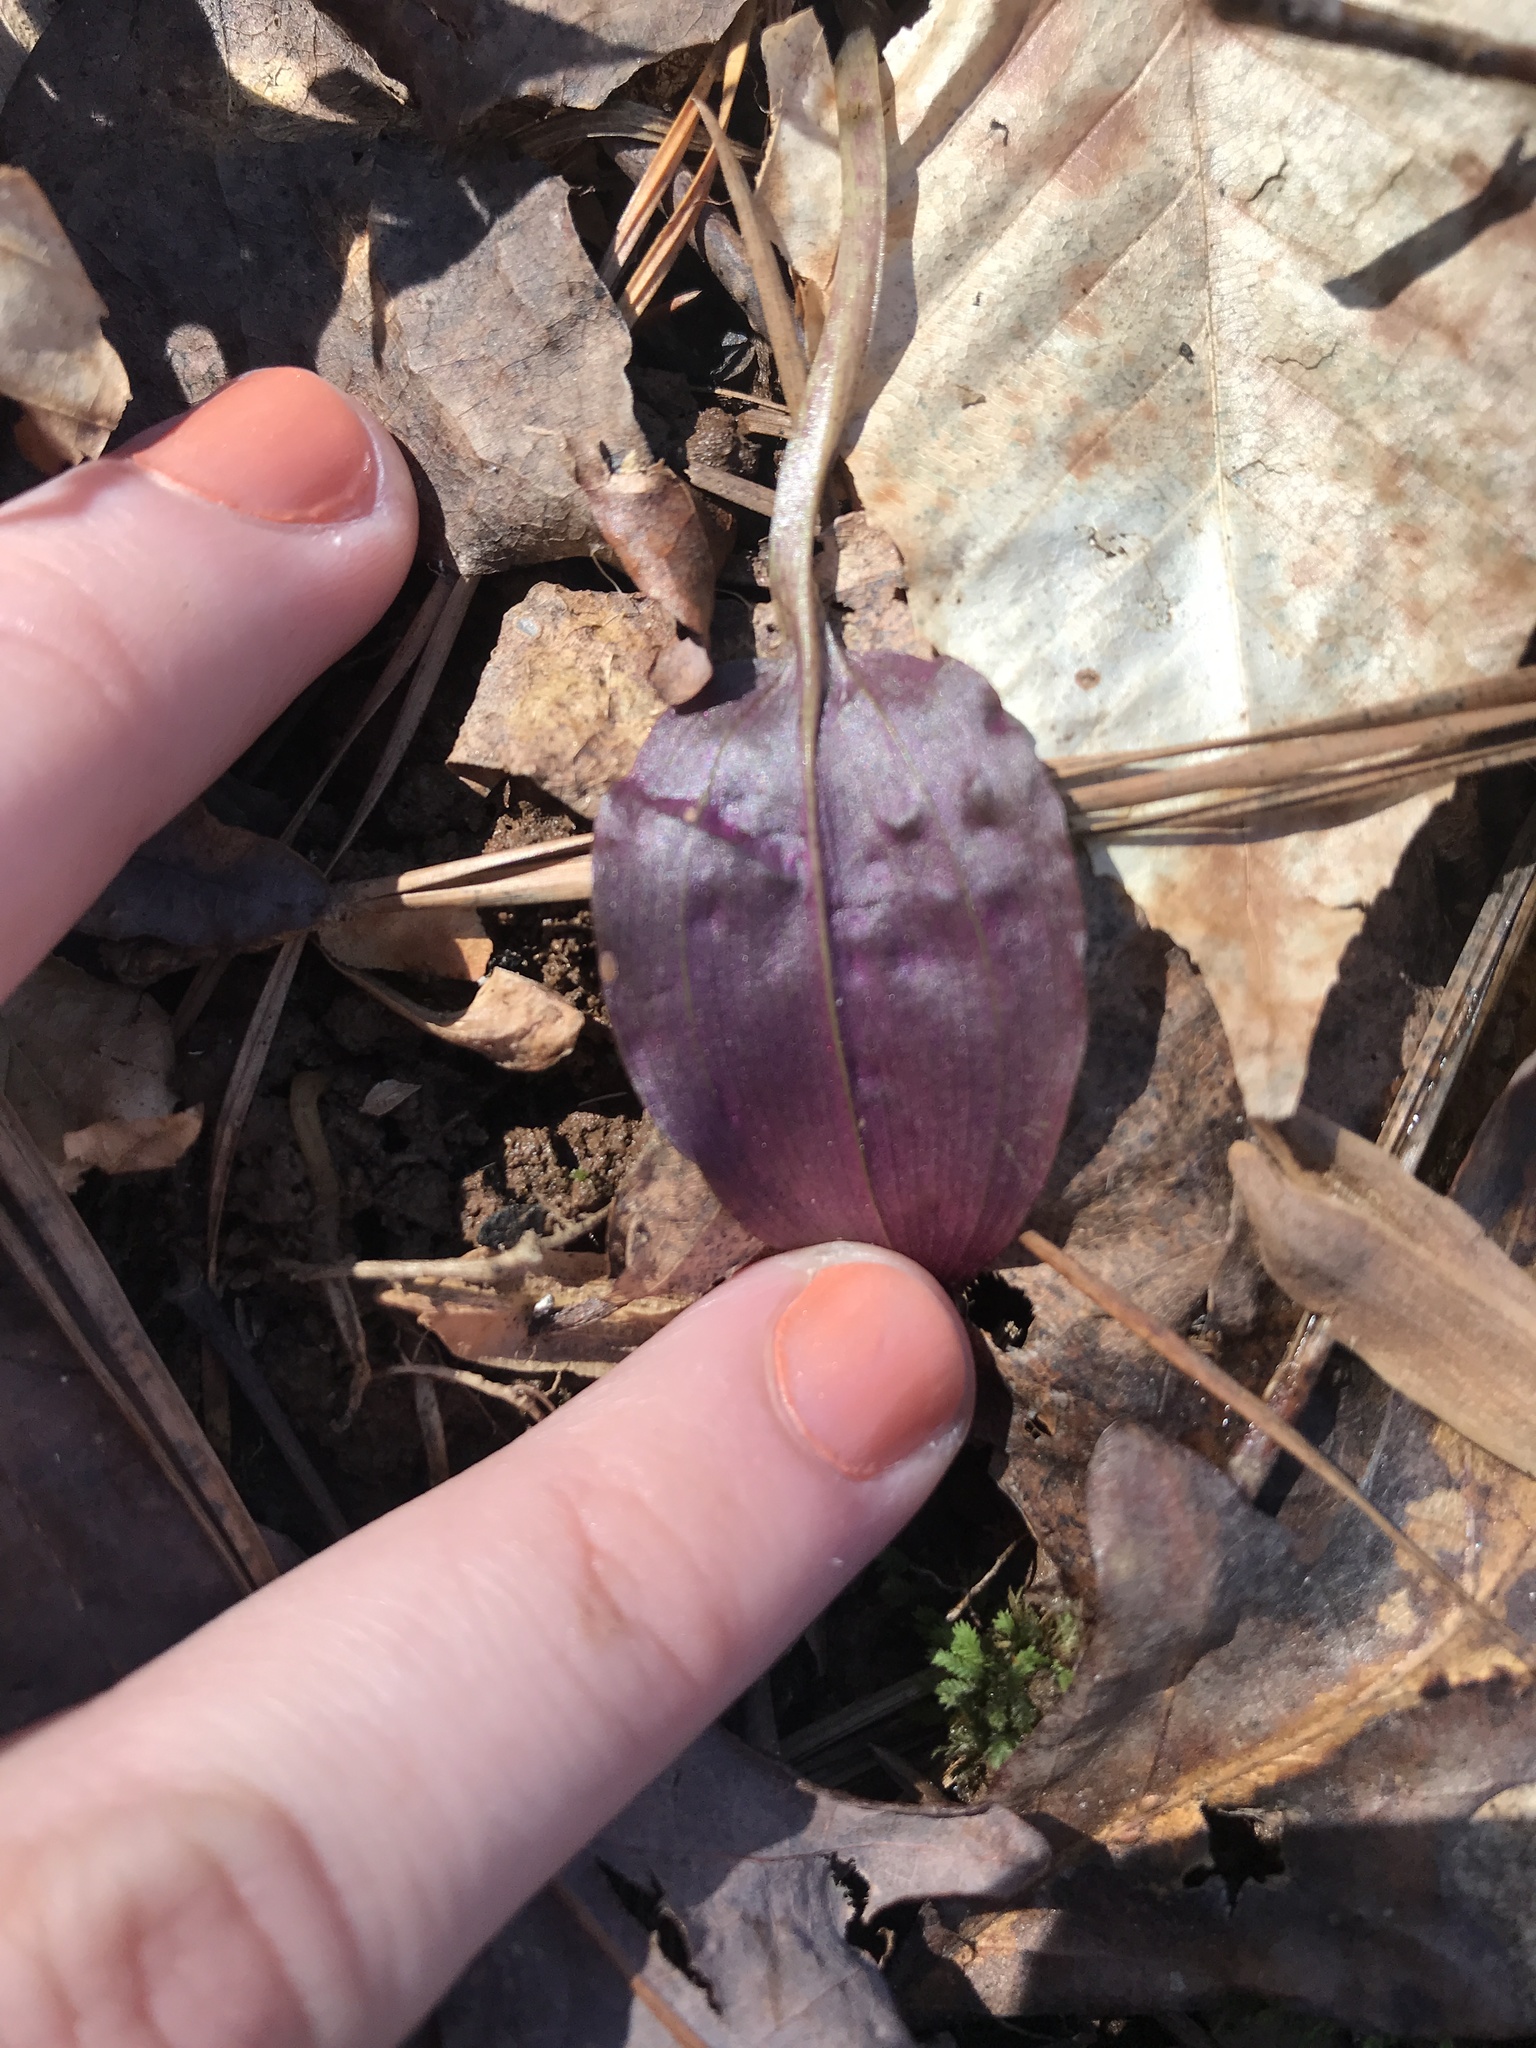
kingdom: Plantae
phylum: Tracheophyta
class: Liliopsida
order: Asparagales
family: Orchidaceae
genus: Tipularia
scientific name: Tipularia discolor
